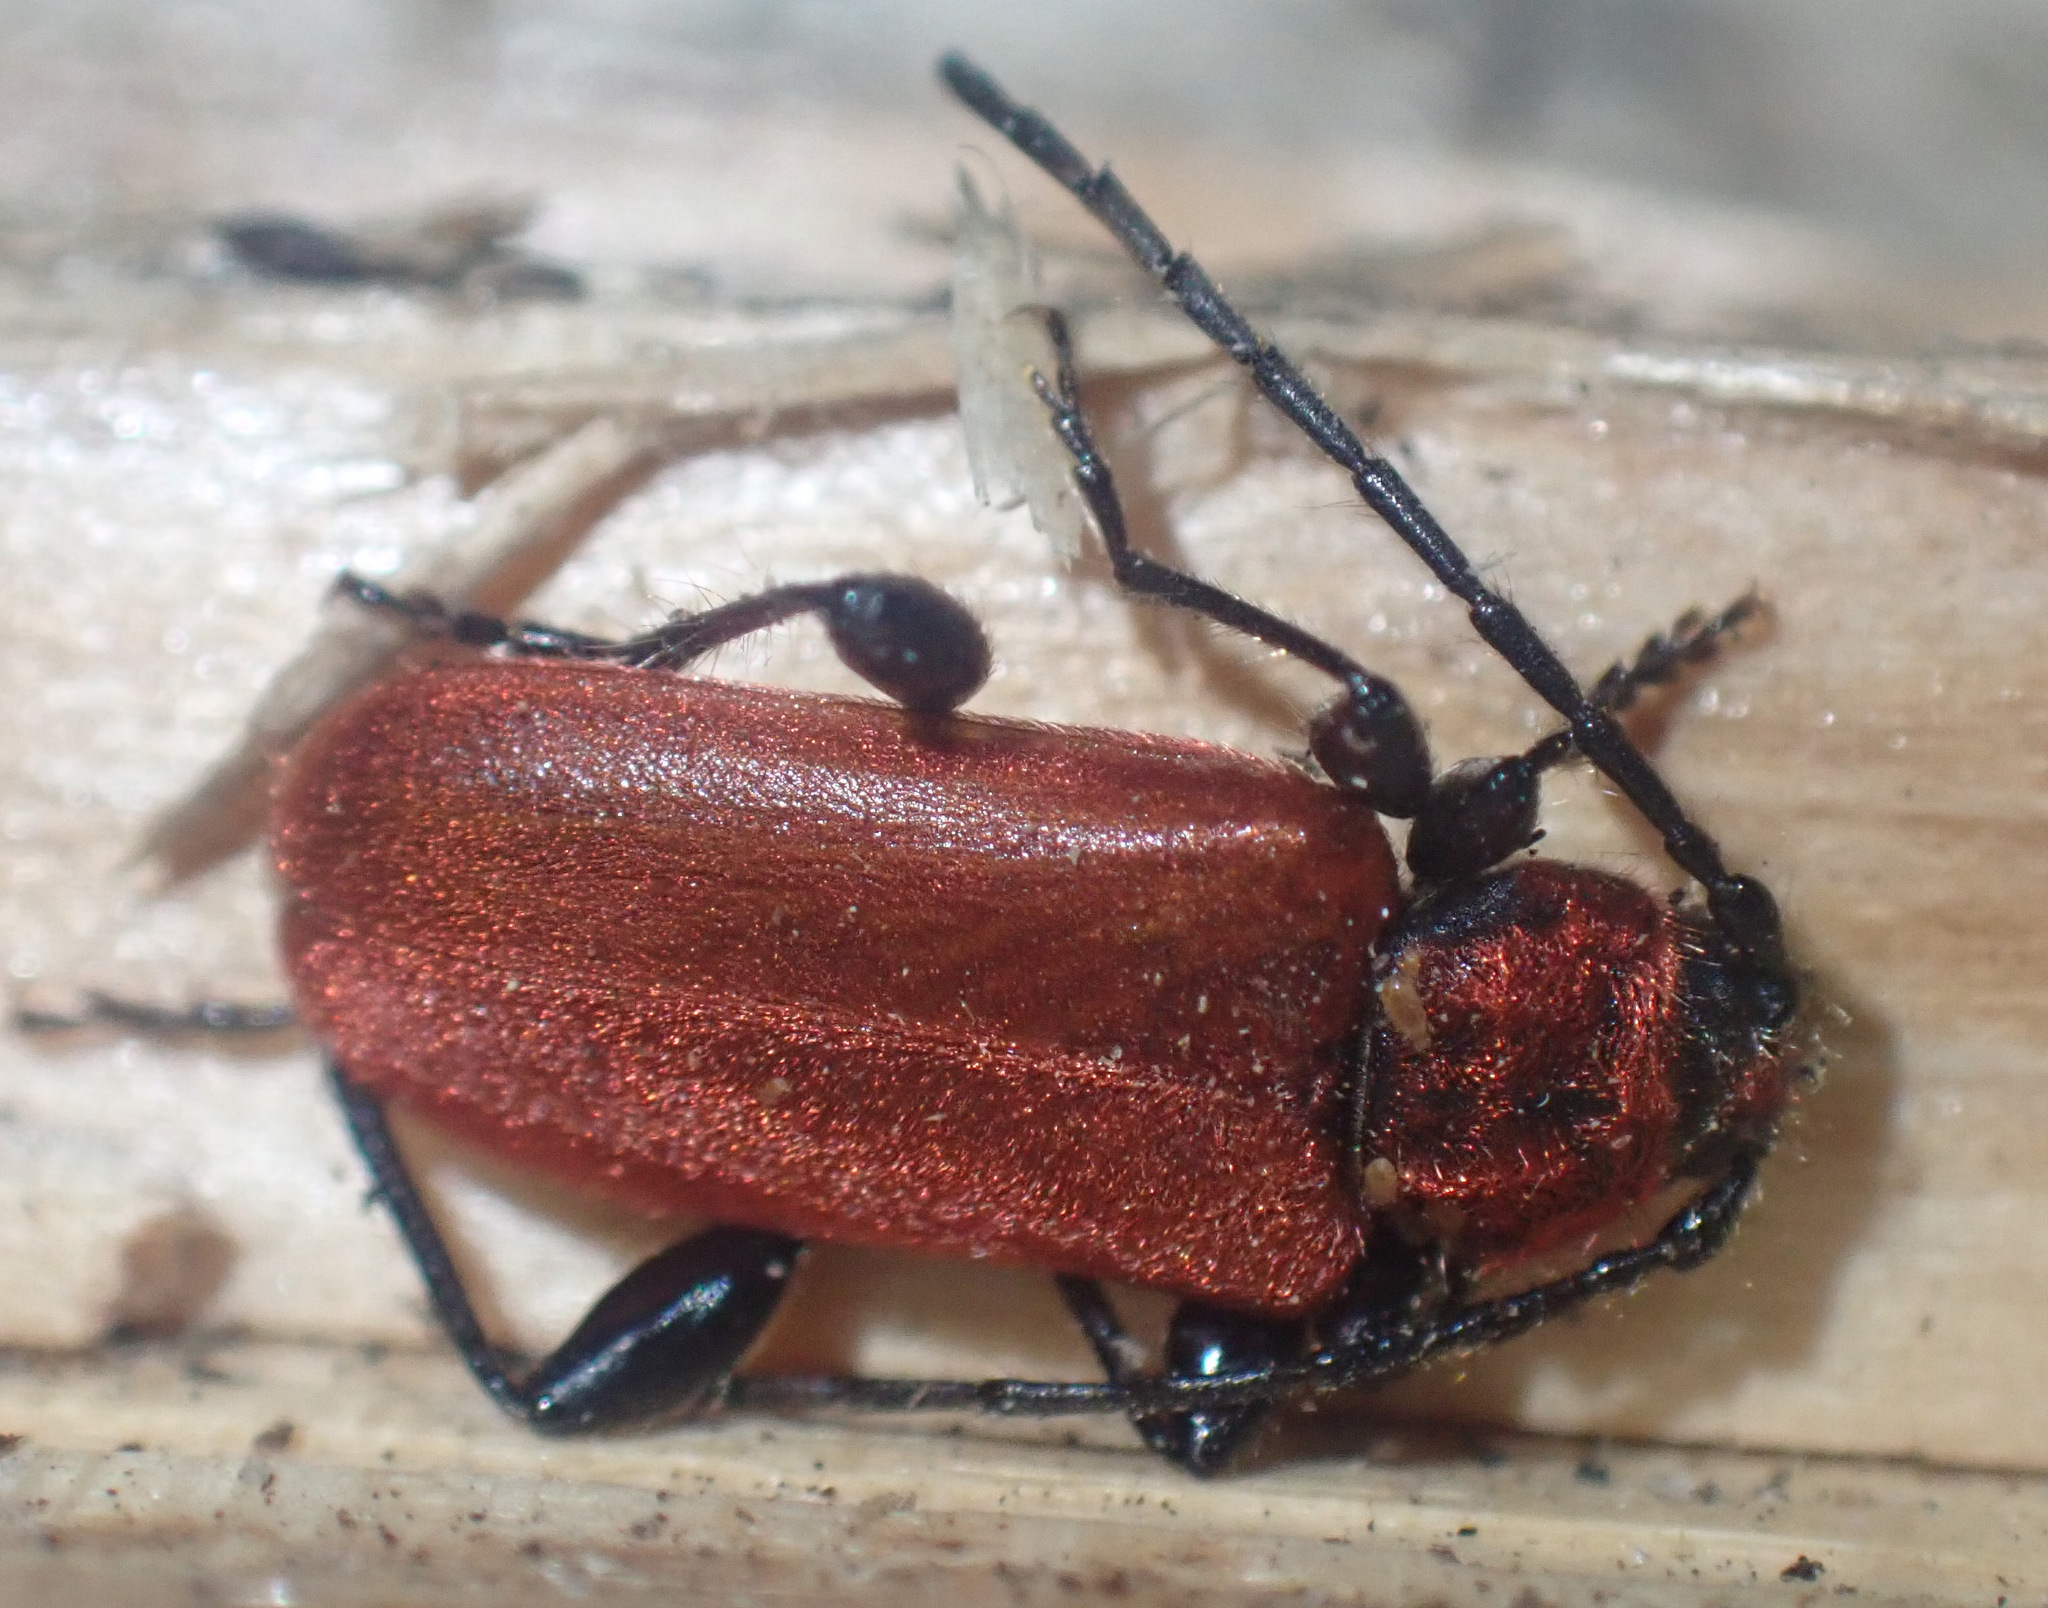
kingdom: Animalia
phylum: Arthropoda
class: Insecta
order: Coleoptera
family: Cerambycidae
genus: Pyrrhidium
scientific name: Pyrrhidium sanguineum
